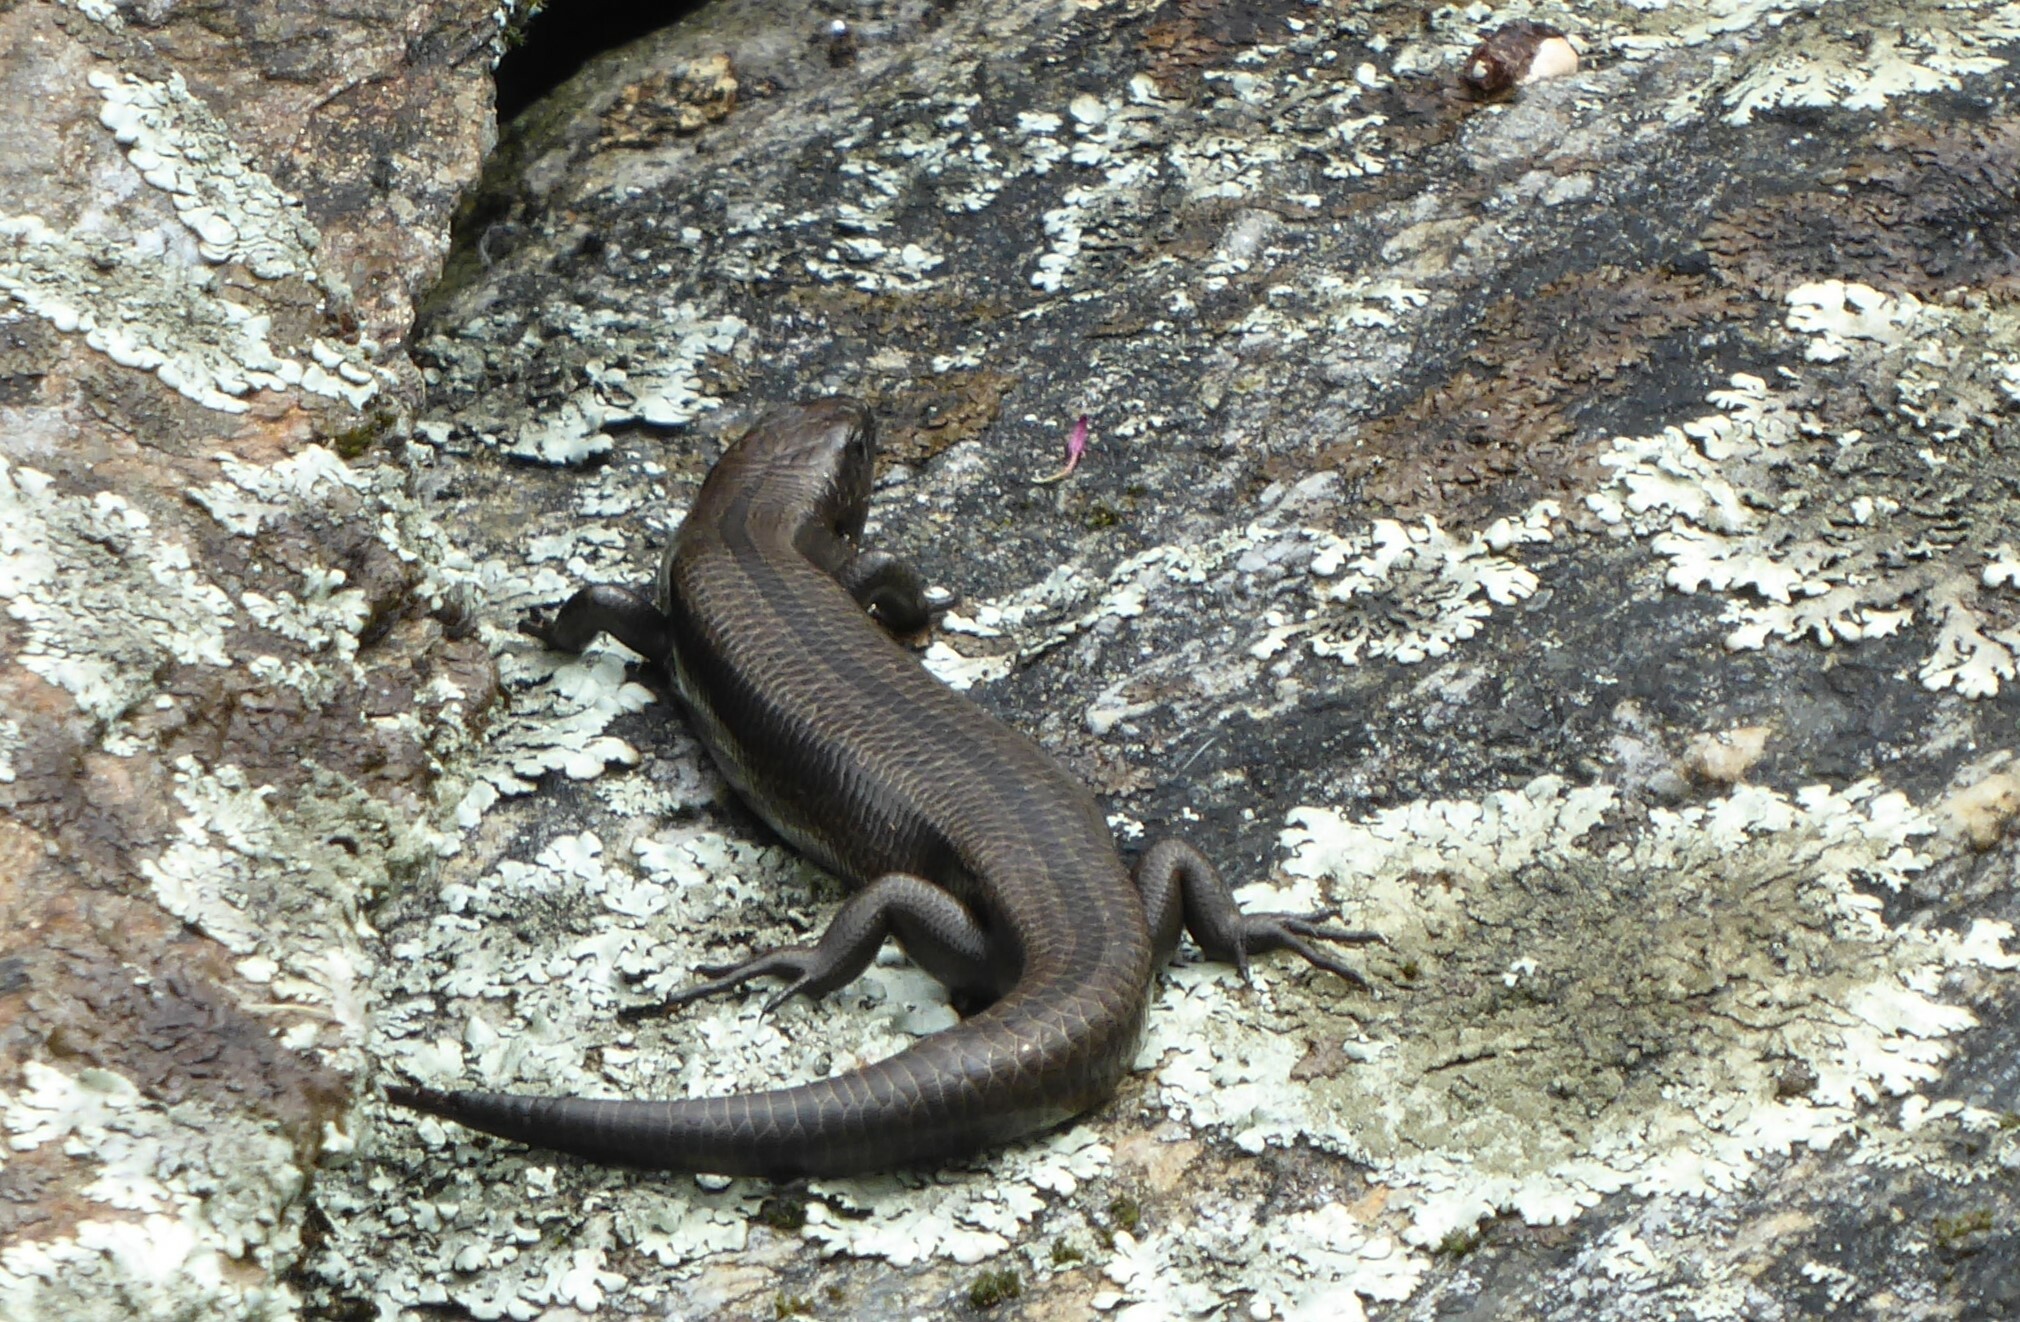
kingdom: Animalia
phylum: Chordata
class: Squamata
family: Scincidae
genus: Oligosoma
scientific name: Oligosoma polychroma
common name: Common new zealand skink
